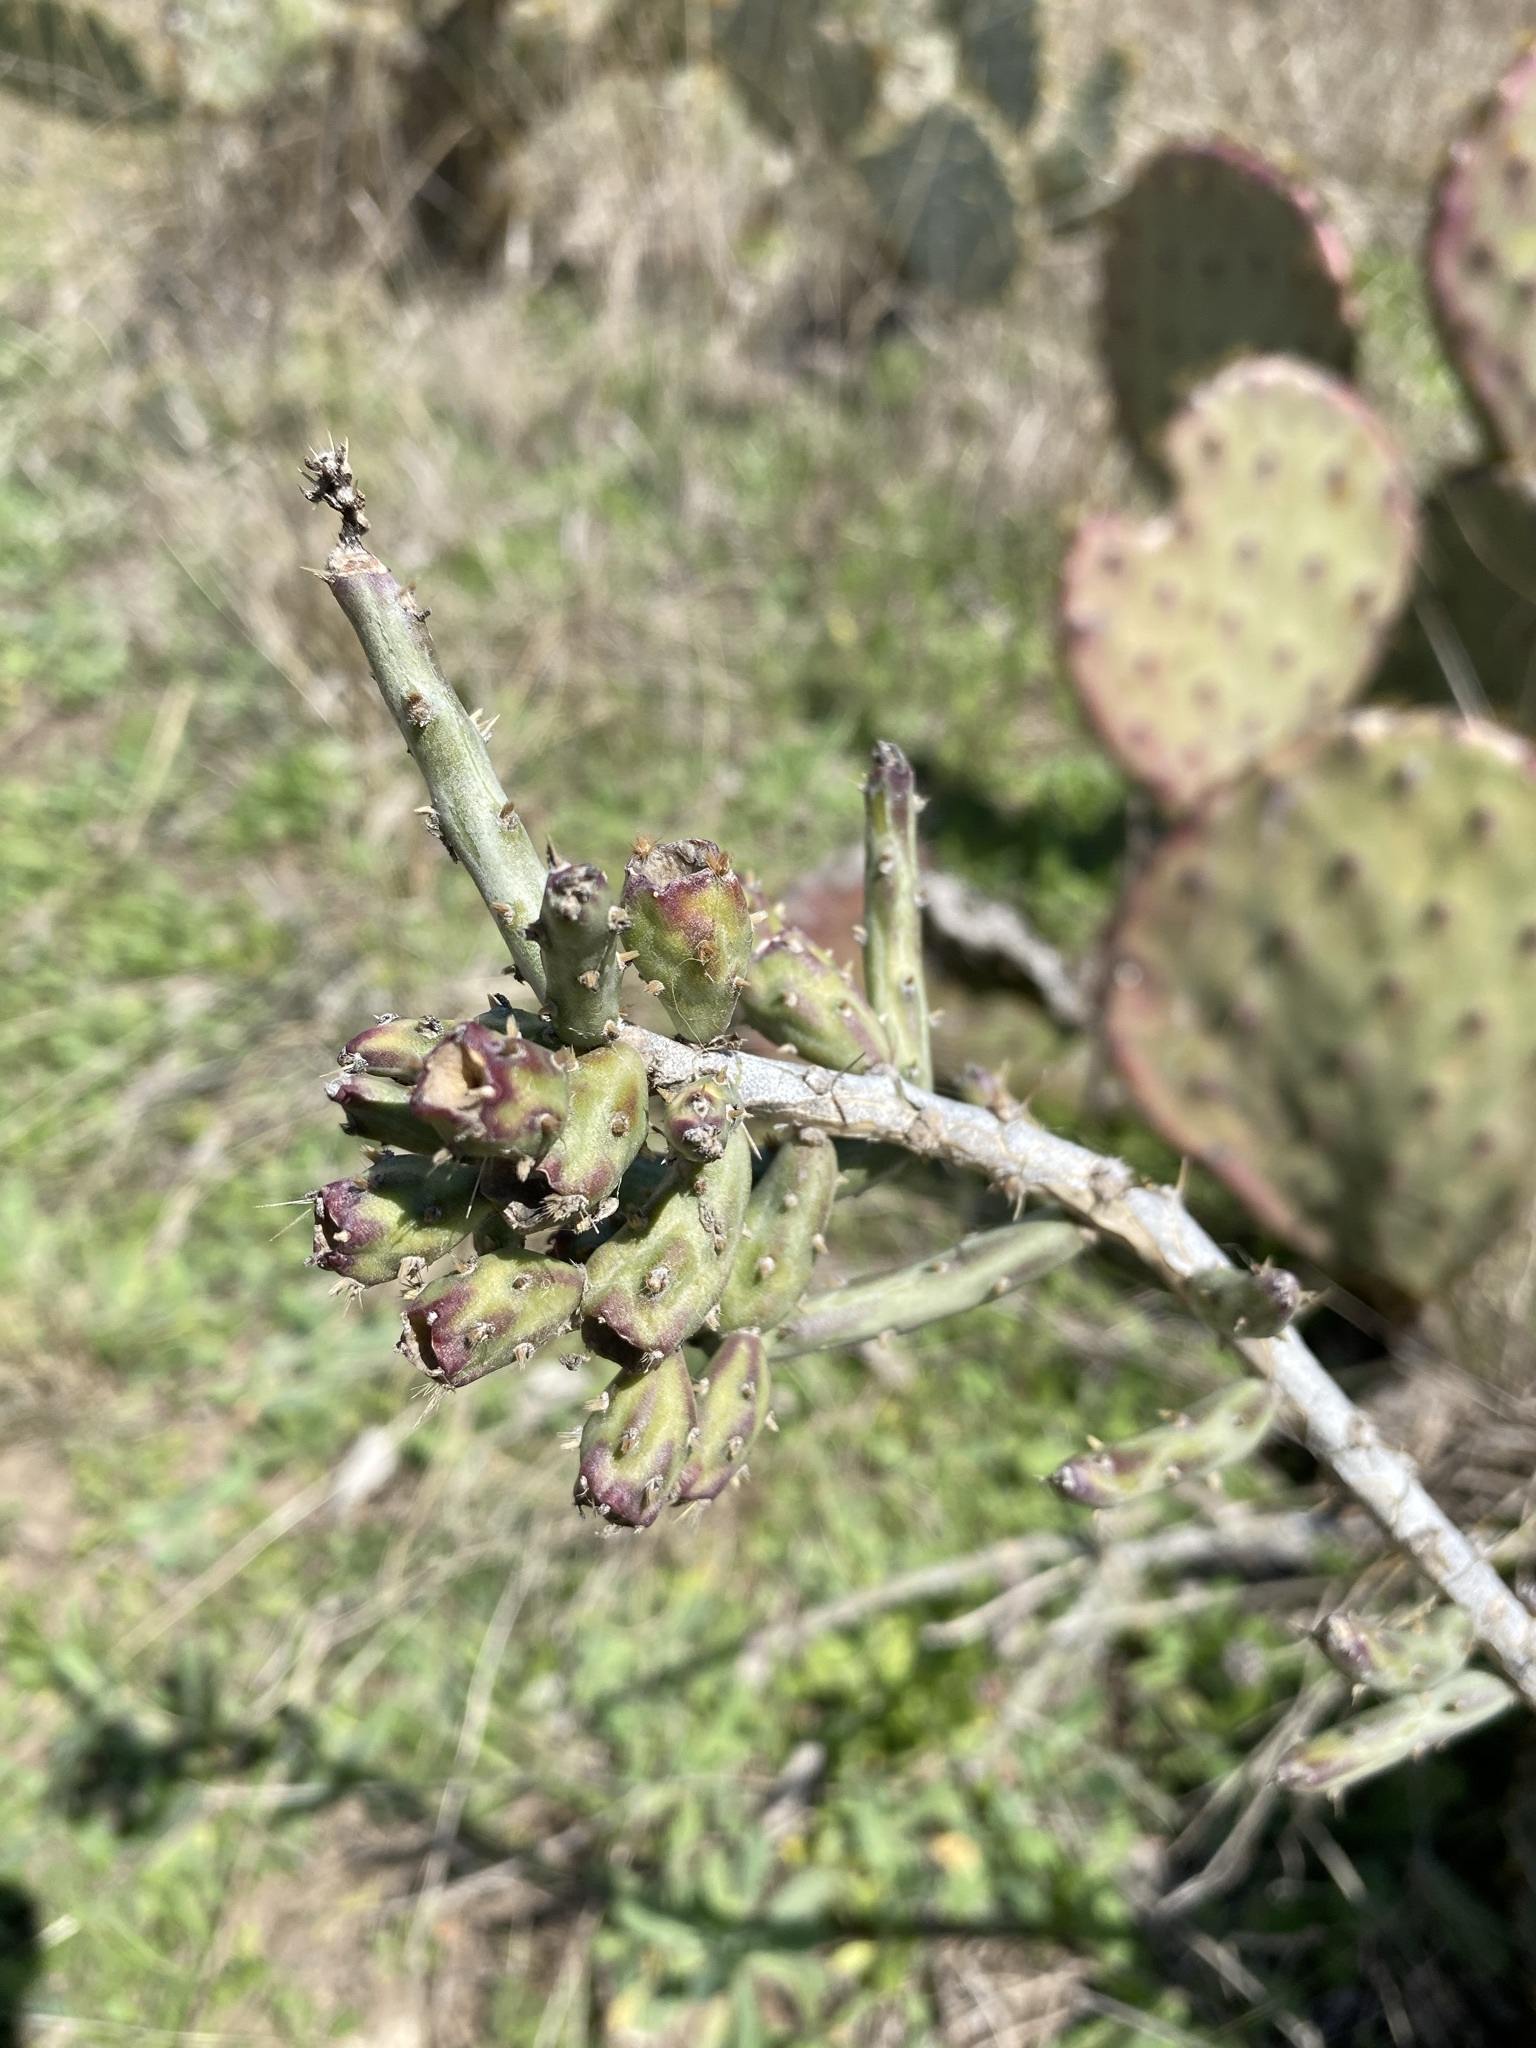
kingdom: Plantae
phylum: Tracheophyta
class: Magnoliopsida
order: Caryophyllales
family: Cactaceae
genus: Cylindropuntia
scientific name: Cylindropuntia leptocaulis
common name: Christmas cactus
